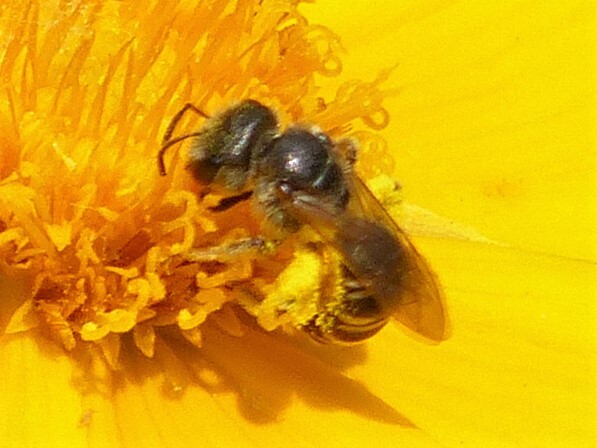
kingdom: Animalia
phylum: Arthropoda
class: Insecta
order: Hymenoptera
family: Halictidae
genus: Halictus
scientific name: Halictus ligatus
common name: Ligated furrow bee
